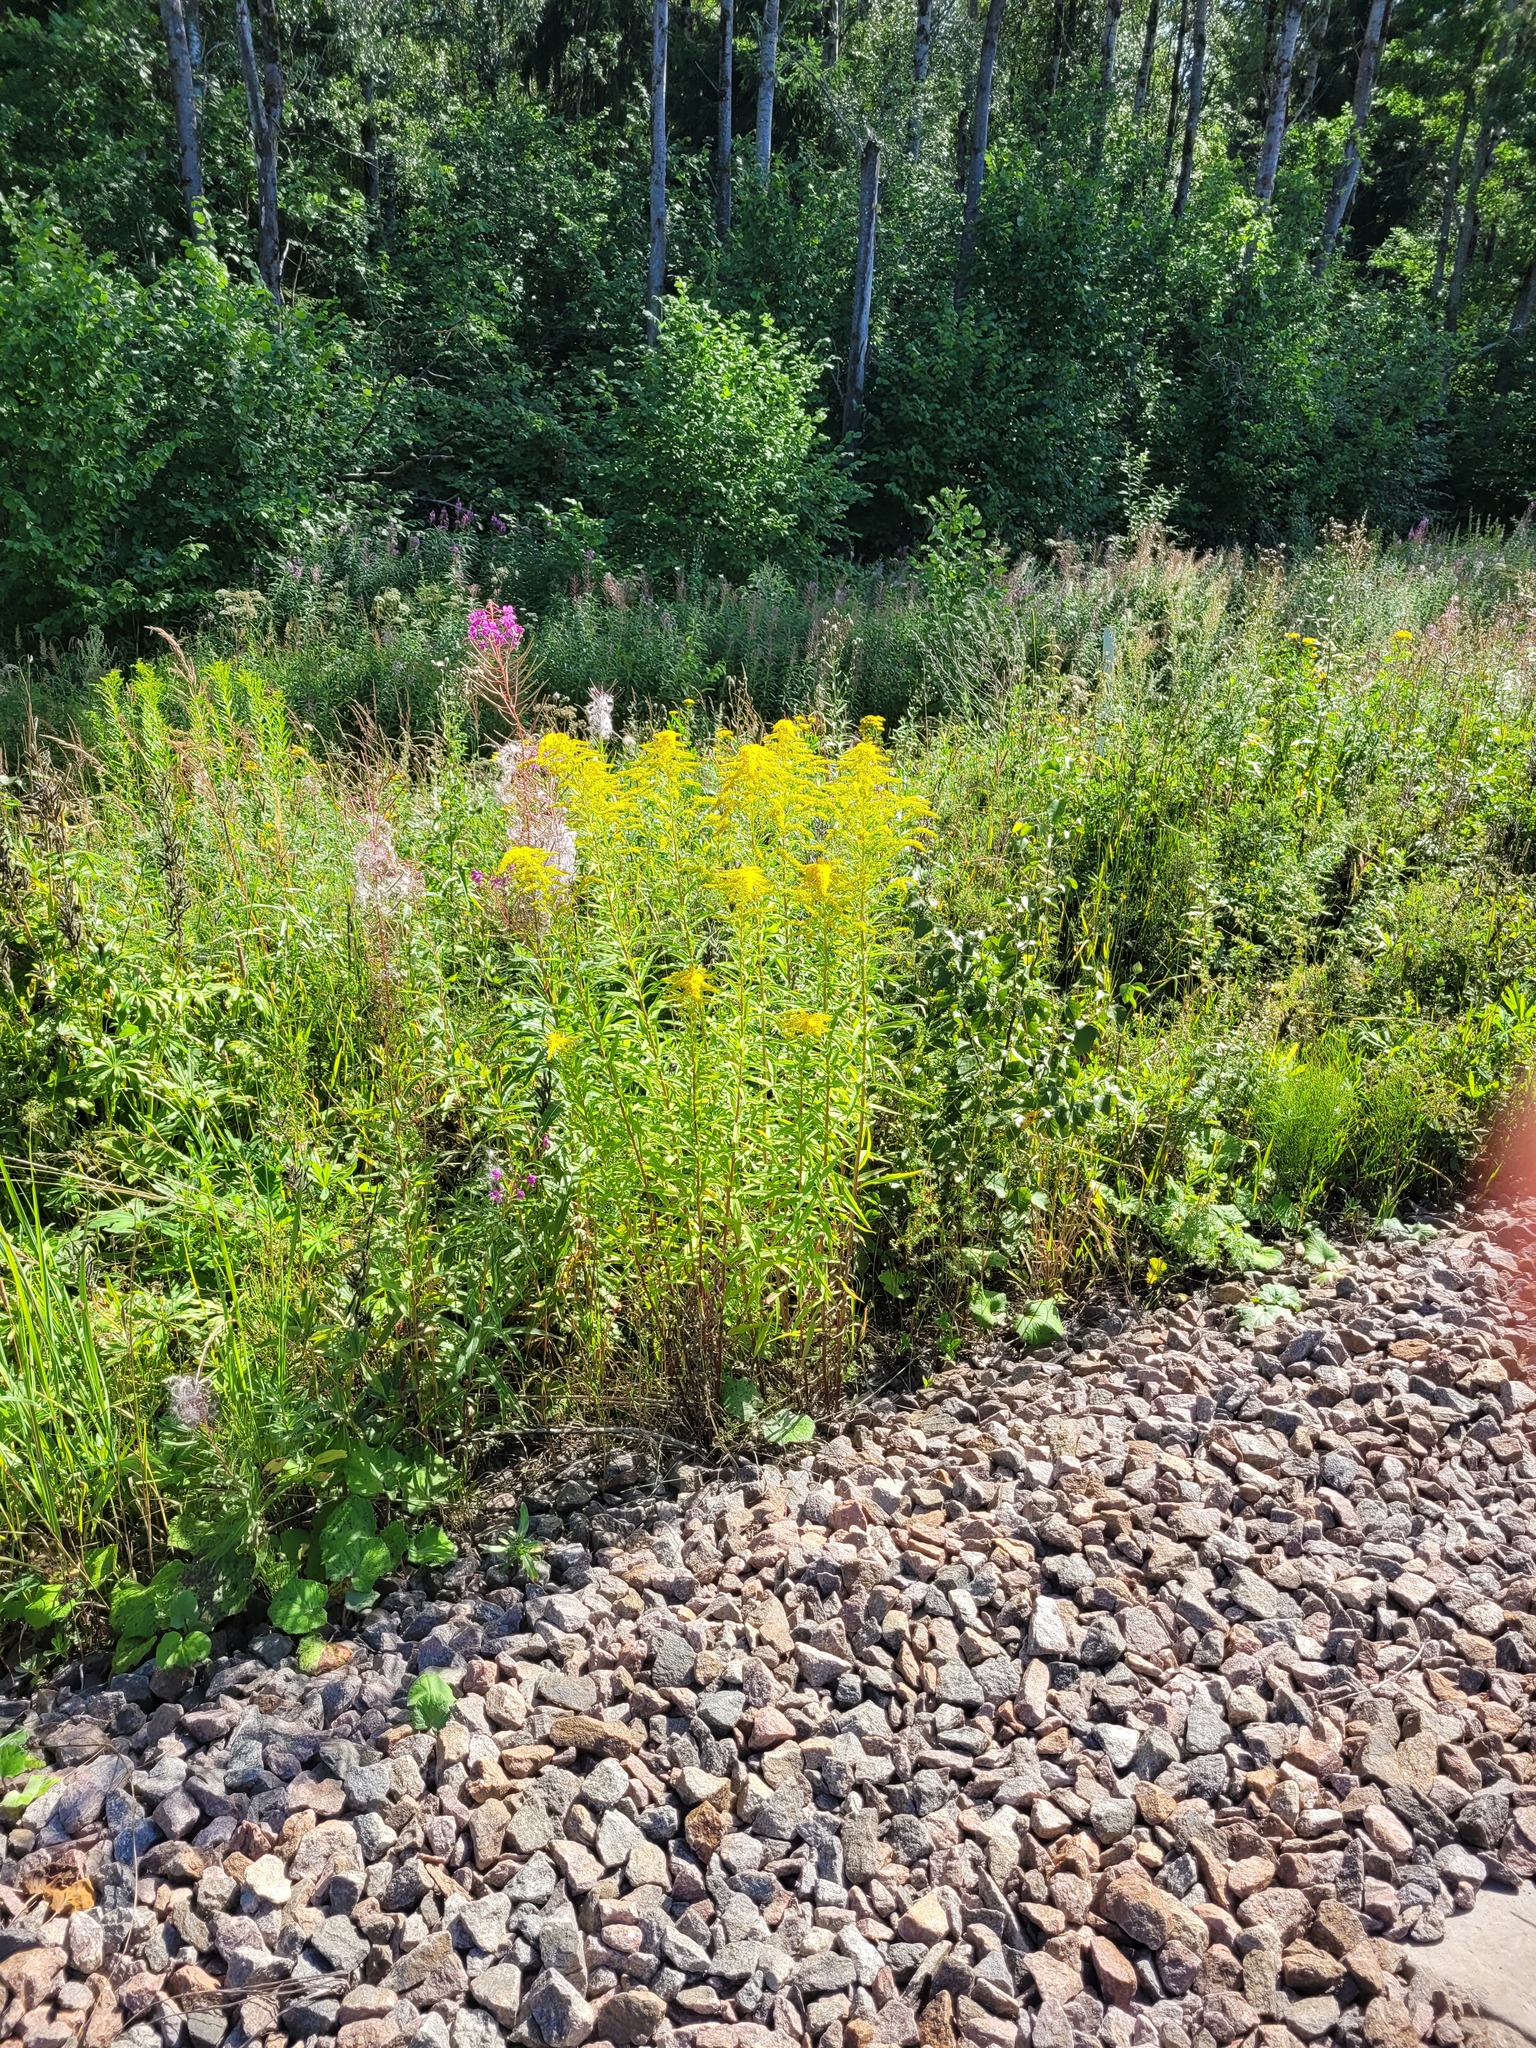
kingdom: Plantae
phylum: Tracheophyta
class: Magnoliopsida
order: Asterales
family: Asteraceae
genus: Solidago
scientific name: Solidago canadensis
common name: Canada goldenrod
